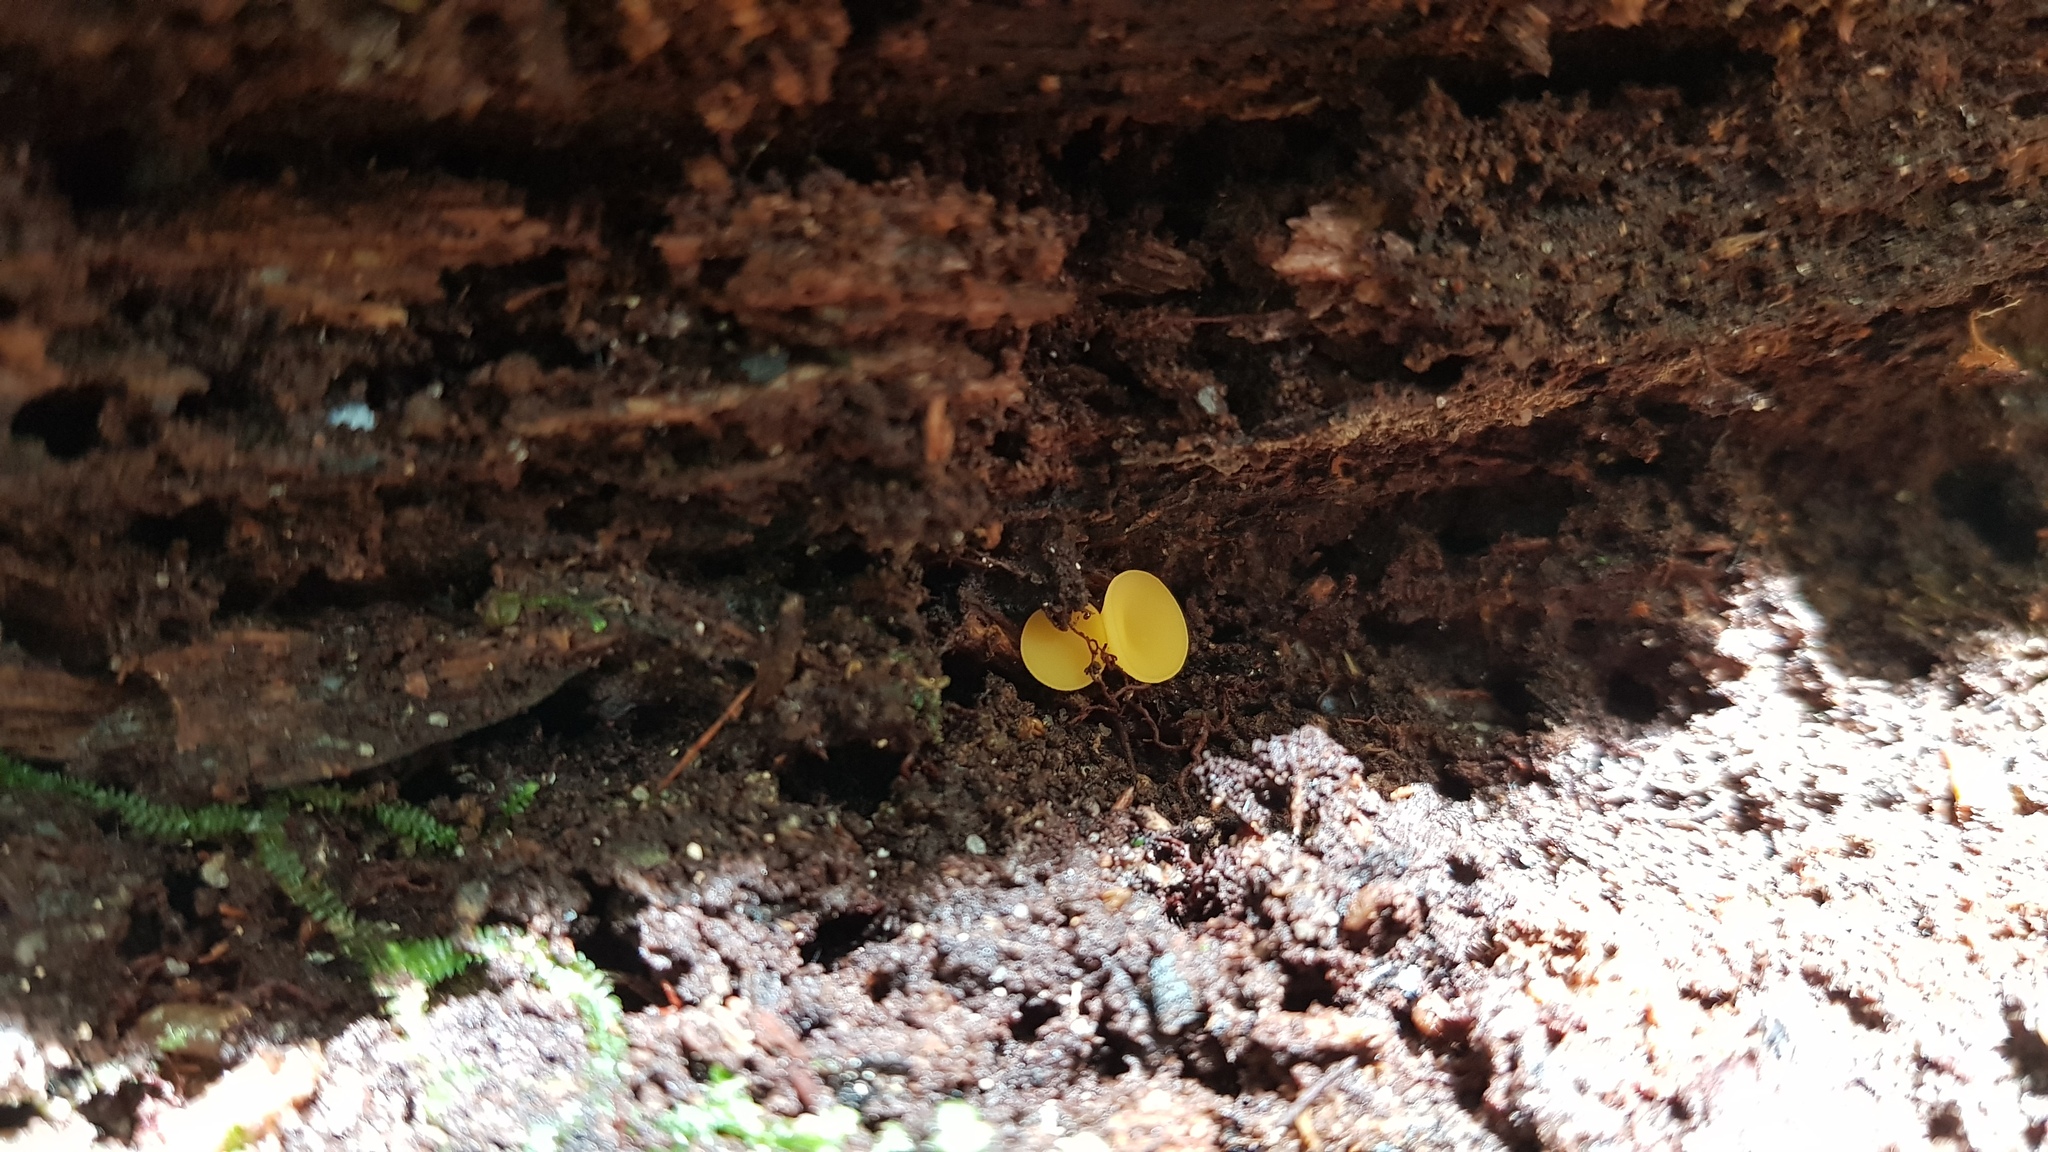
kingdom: Fungi
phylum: Ascomycota
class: Leotiomycetes
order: Helotiales
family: Helotiaceae
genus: Phaeohelotium
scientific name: Phaeohelotium baileyanum
